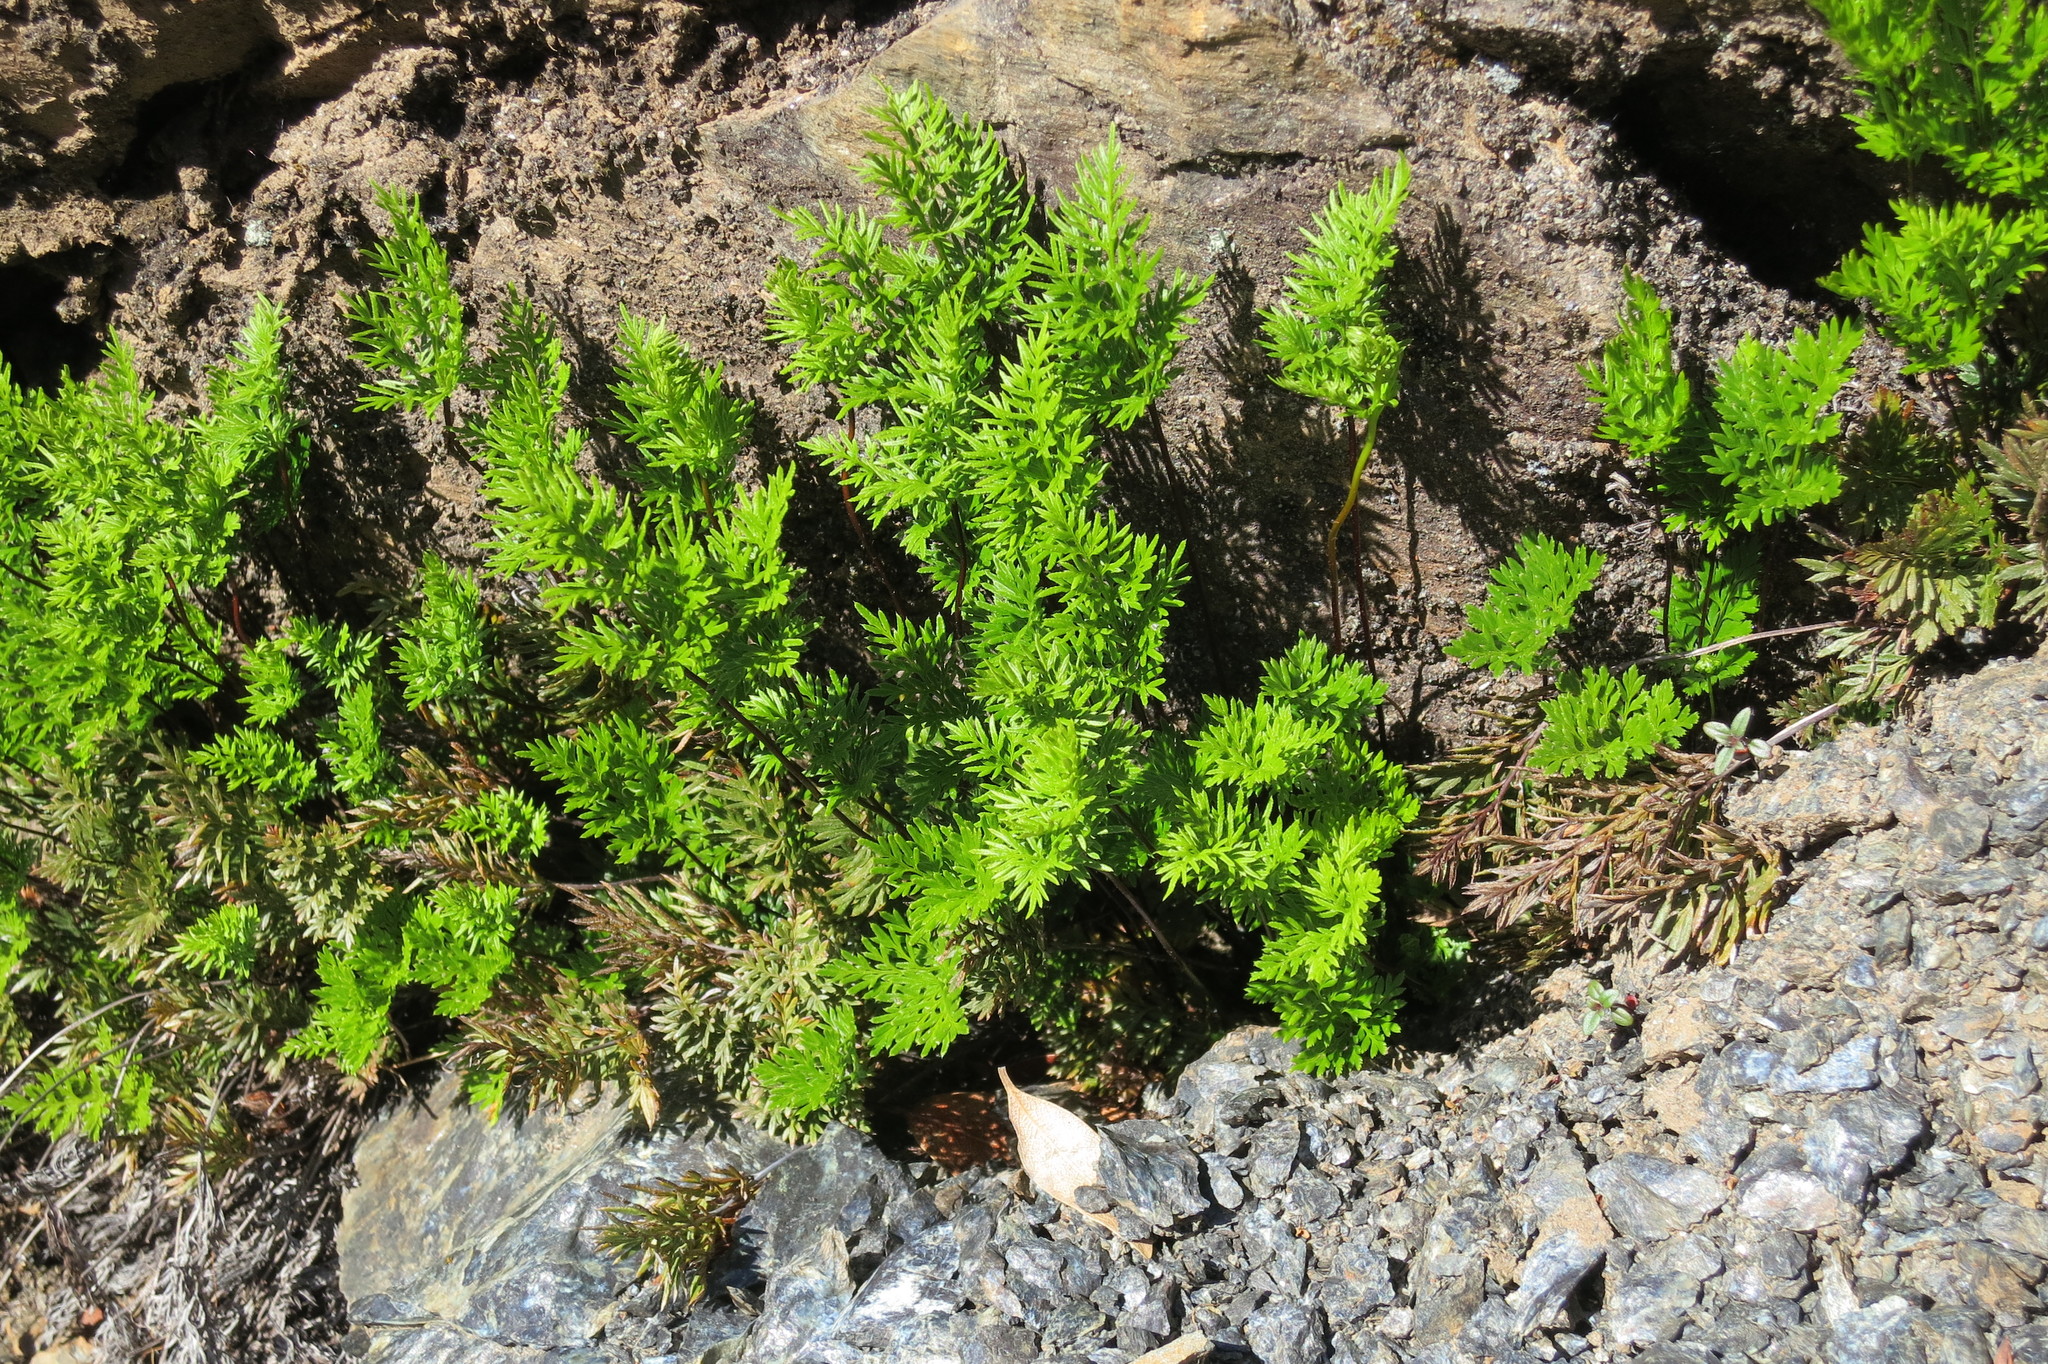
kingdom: Plantae
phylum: Tracheophyta
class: Polypodiopsida
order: Polypodiales
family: Pteridaceae
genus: Aspidotis
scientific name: Aspidotis densa
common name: Indian's dream
